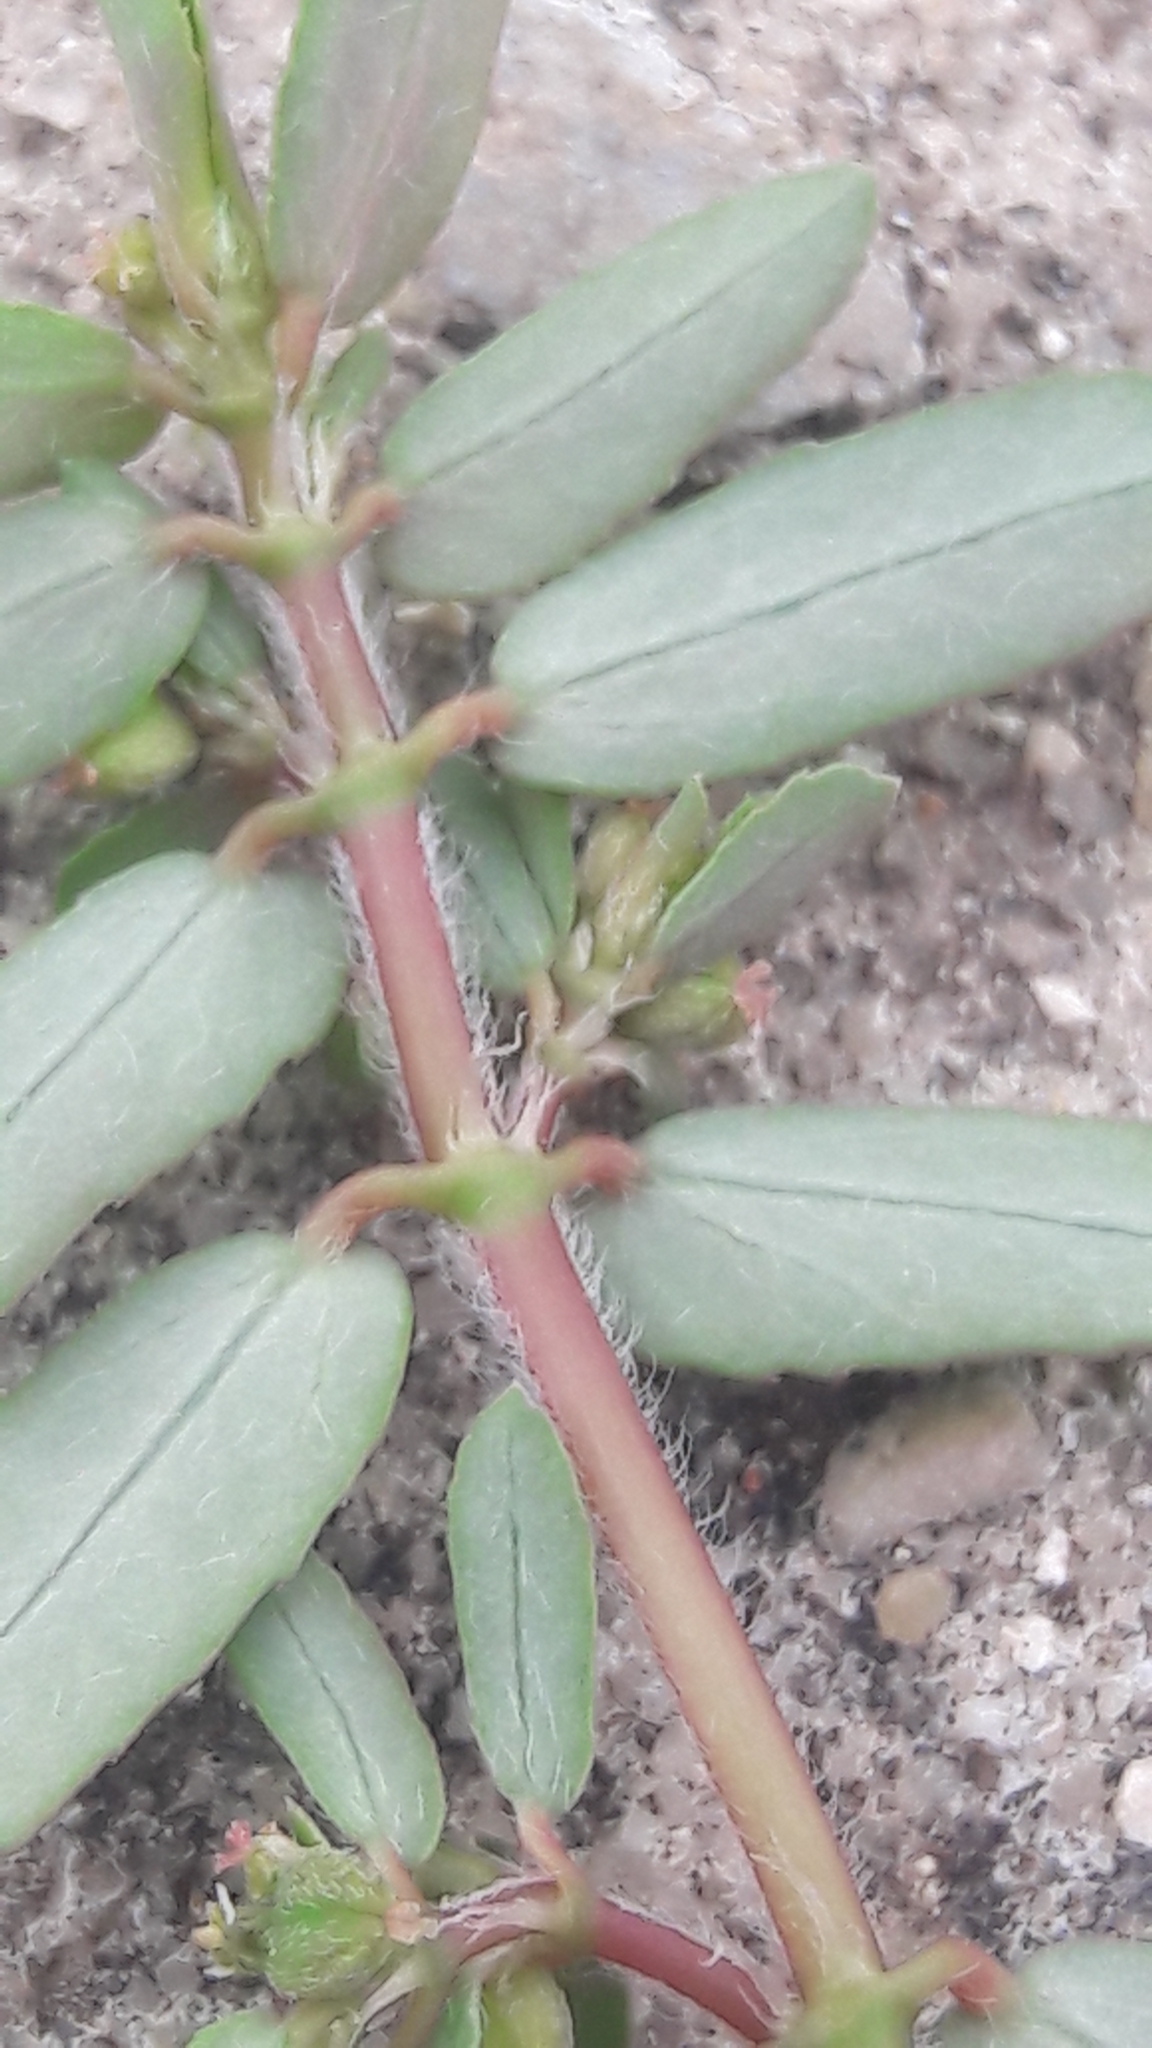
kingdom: Plantae
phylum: Tracheophyta
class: Magnoliopsida
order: Malpighiales
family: Euphorbiaceae
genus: Euphorbia
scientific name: Euphorbia maculata
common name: Spotted spurge
